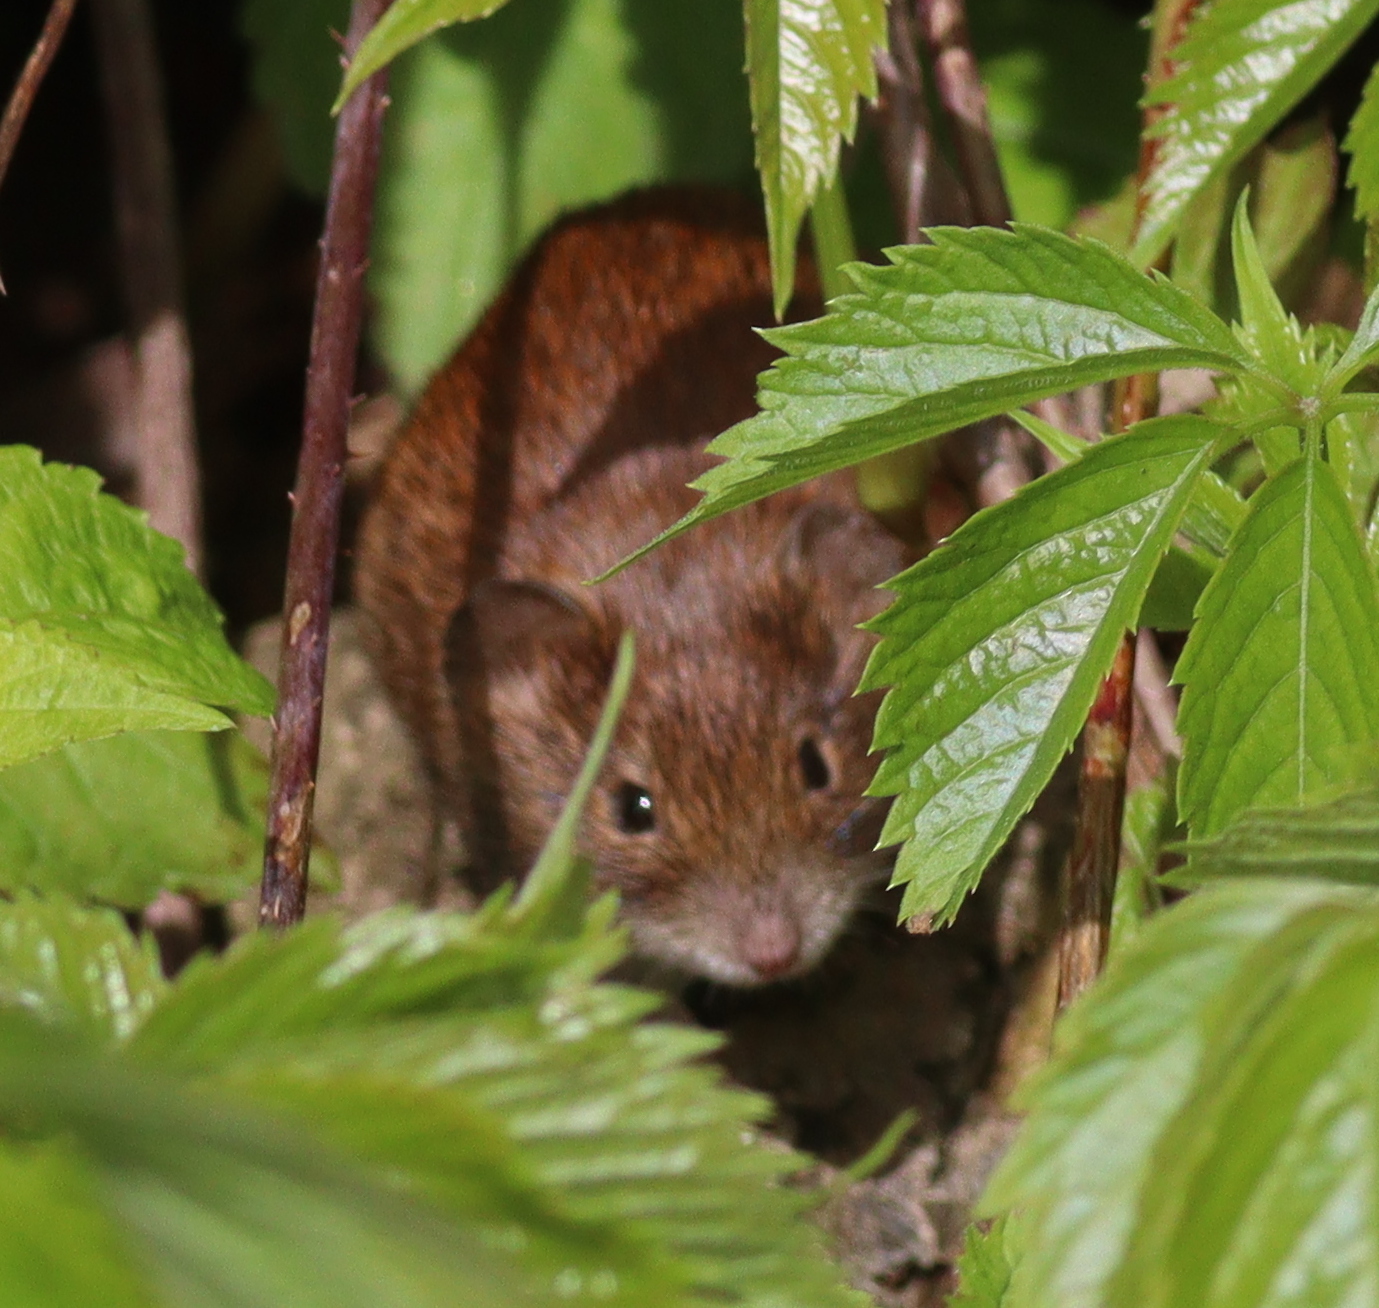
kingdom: Animalia
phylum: Chordata
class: Mammalia
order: Rodentia
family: Cricetidae
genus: Myodes
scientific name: Myodes glareolus
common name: Bank vole
